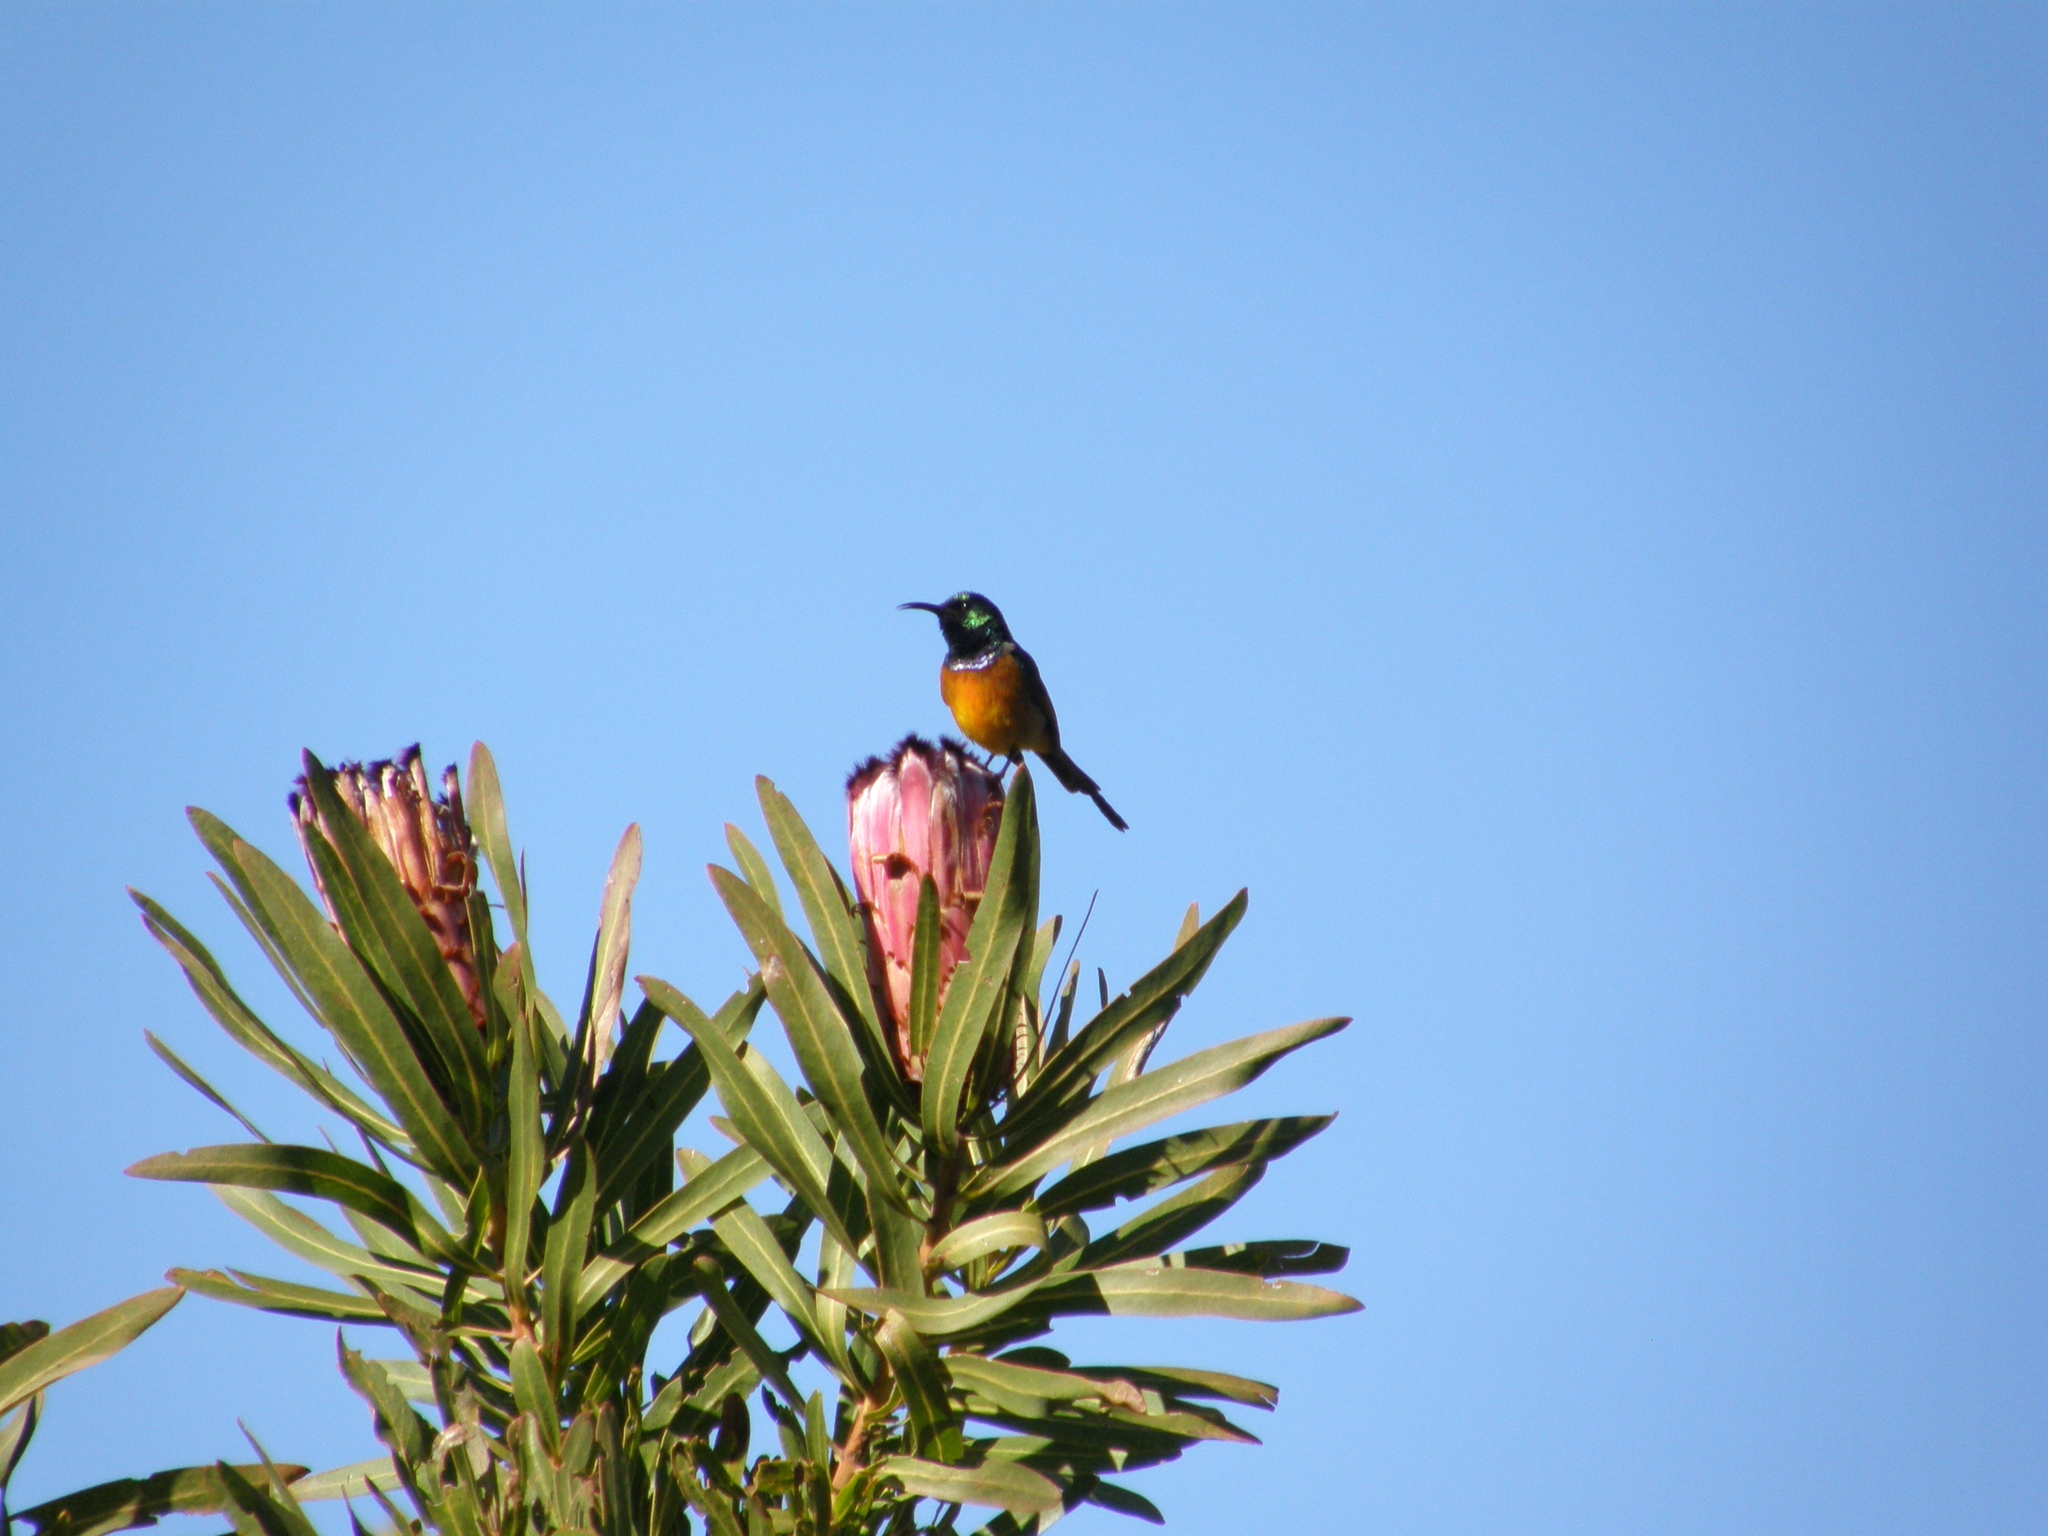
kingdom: Animalia
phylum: Chordata
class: Aves
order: Passeriformes
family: Nectariniidae
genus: Anthobaphes
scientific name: Anthobaphes violacea
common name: Orange-breasted sunbird
